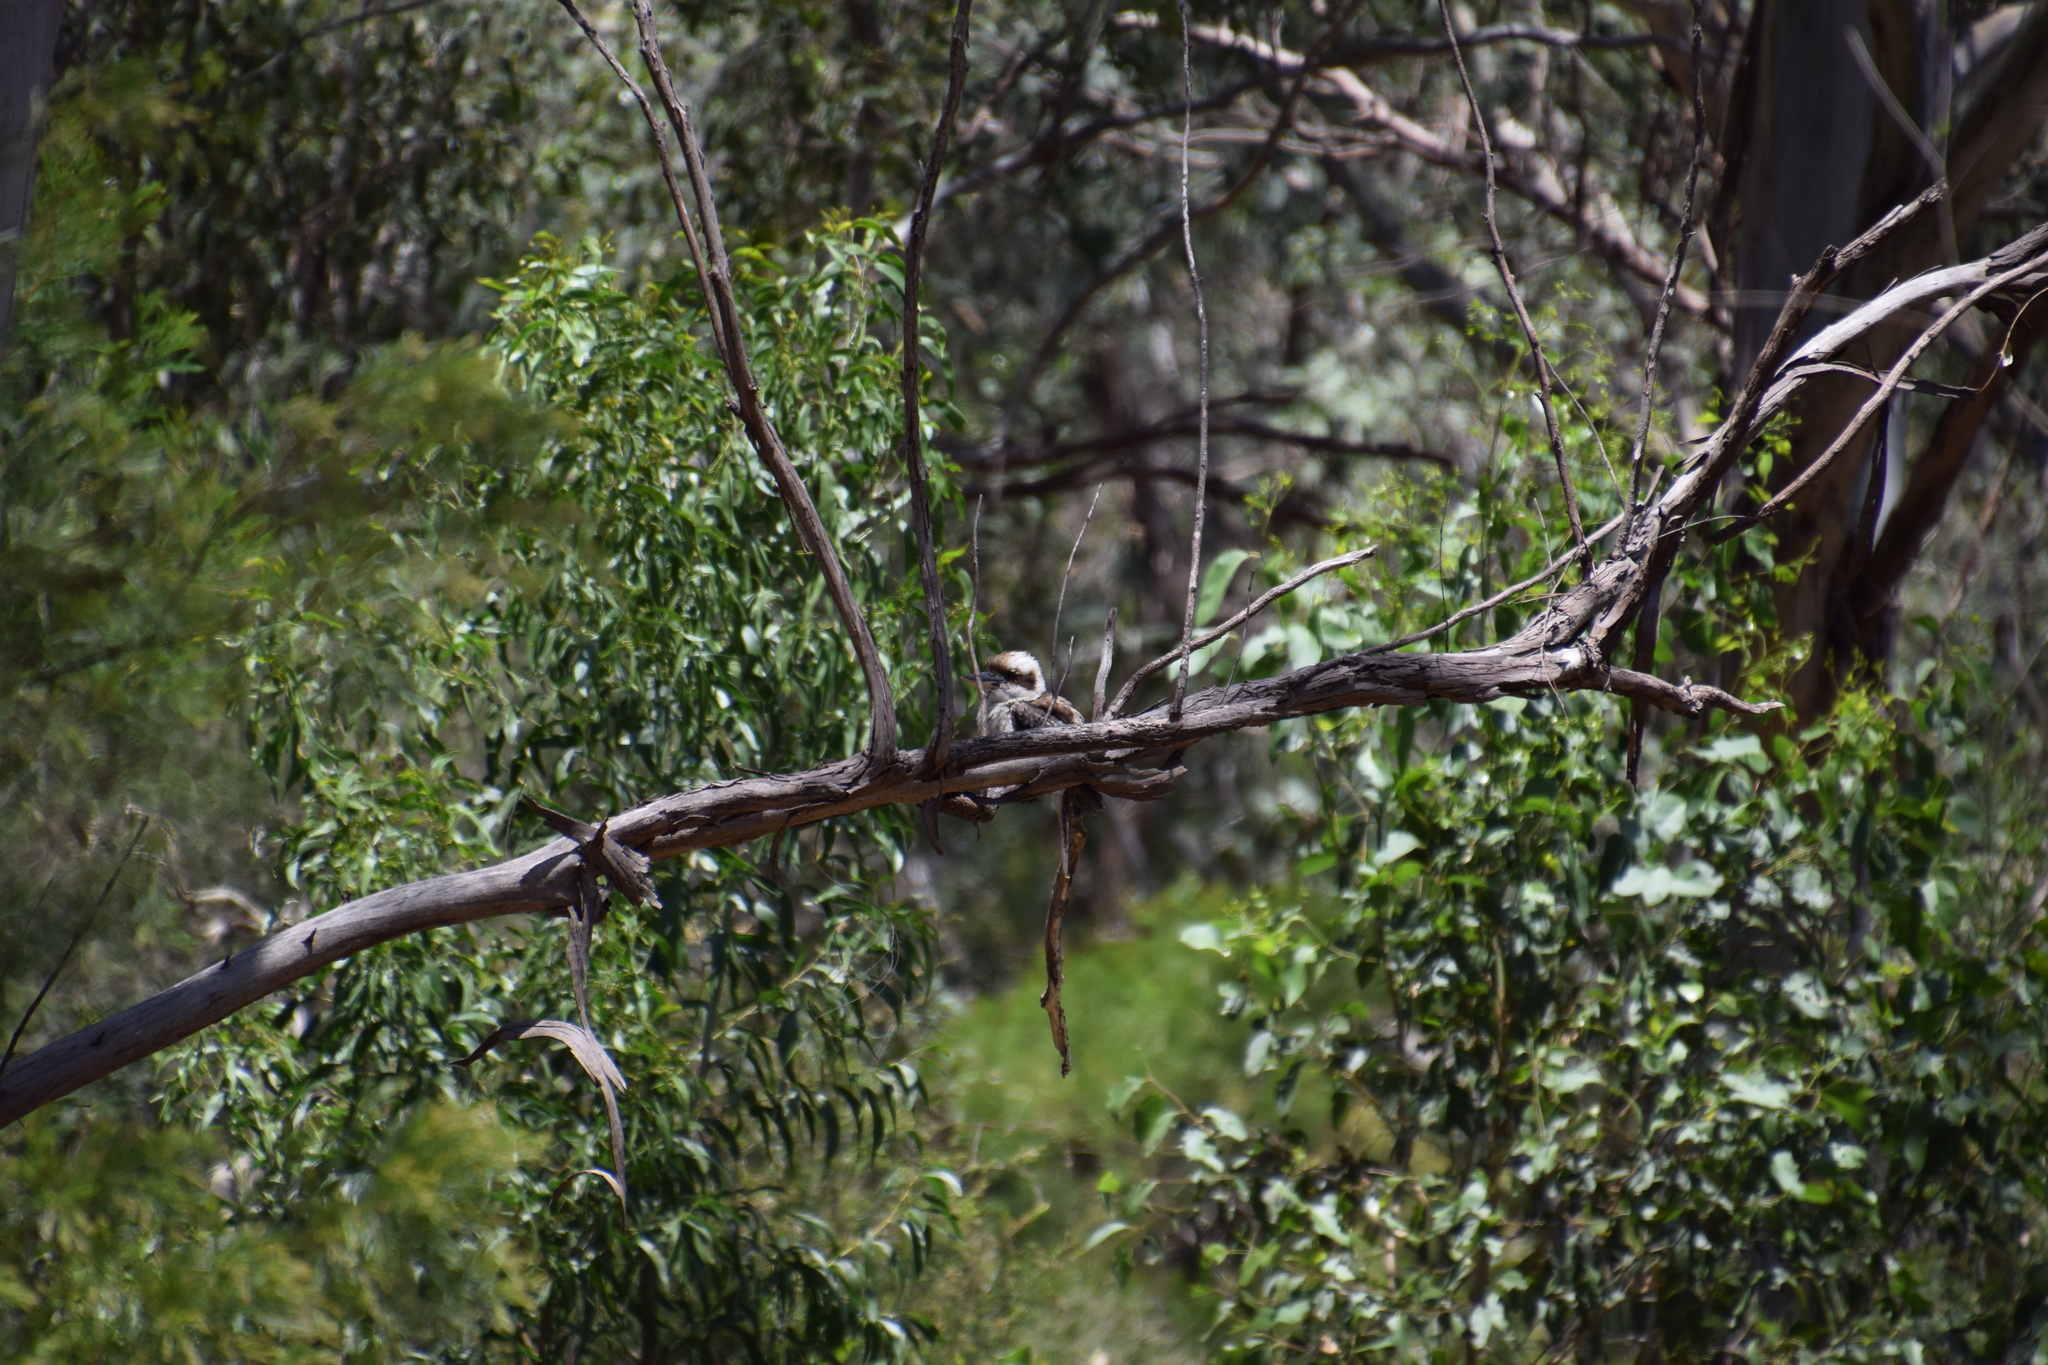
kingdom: Animalia
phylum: Chordata
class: Aves
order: Coraciiformes
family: Alcedinidae
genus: Dacelo
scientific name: Dacelo novaeguineae
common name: Laughing kookaburra
